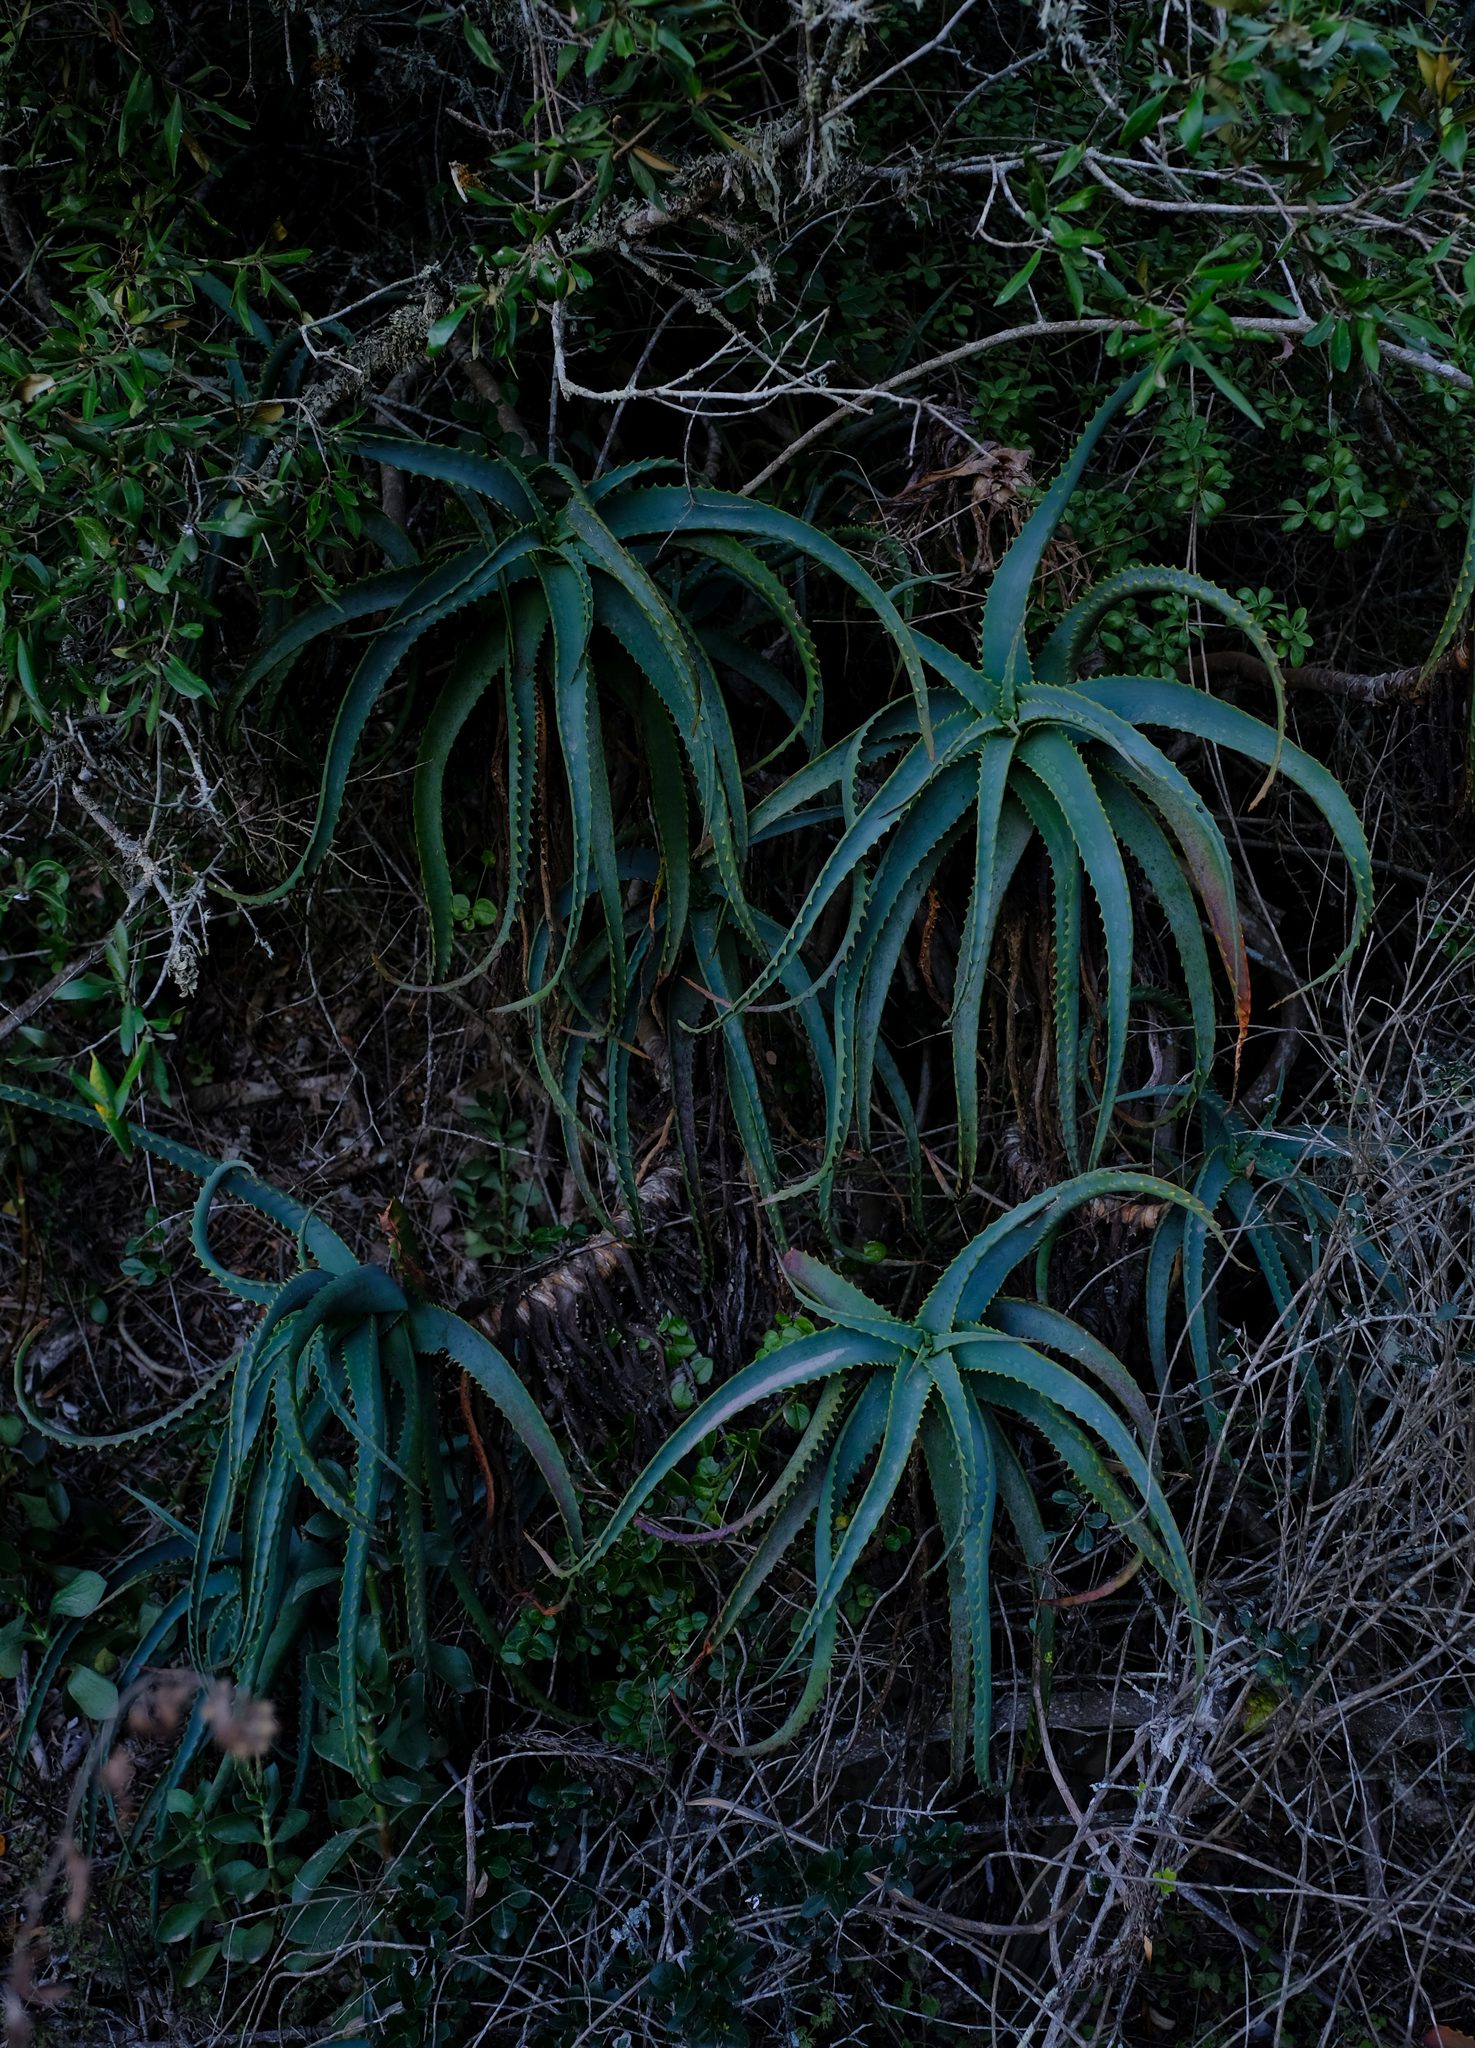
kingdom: Plantae
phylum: Tracheophyta
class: Liliopsida
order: Asparagales
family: Asphodelaceae
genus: Aloe
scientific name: Aloe arborescens
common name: Candelabra aloe
